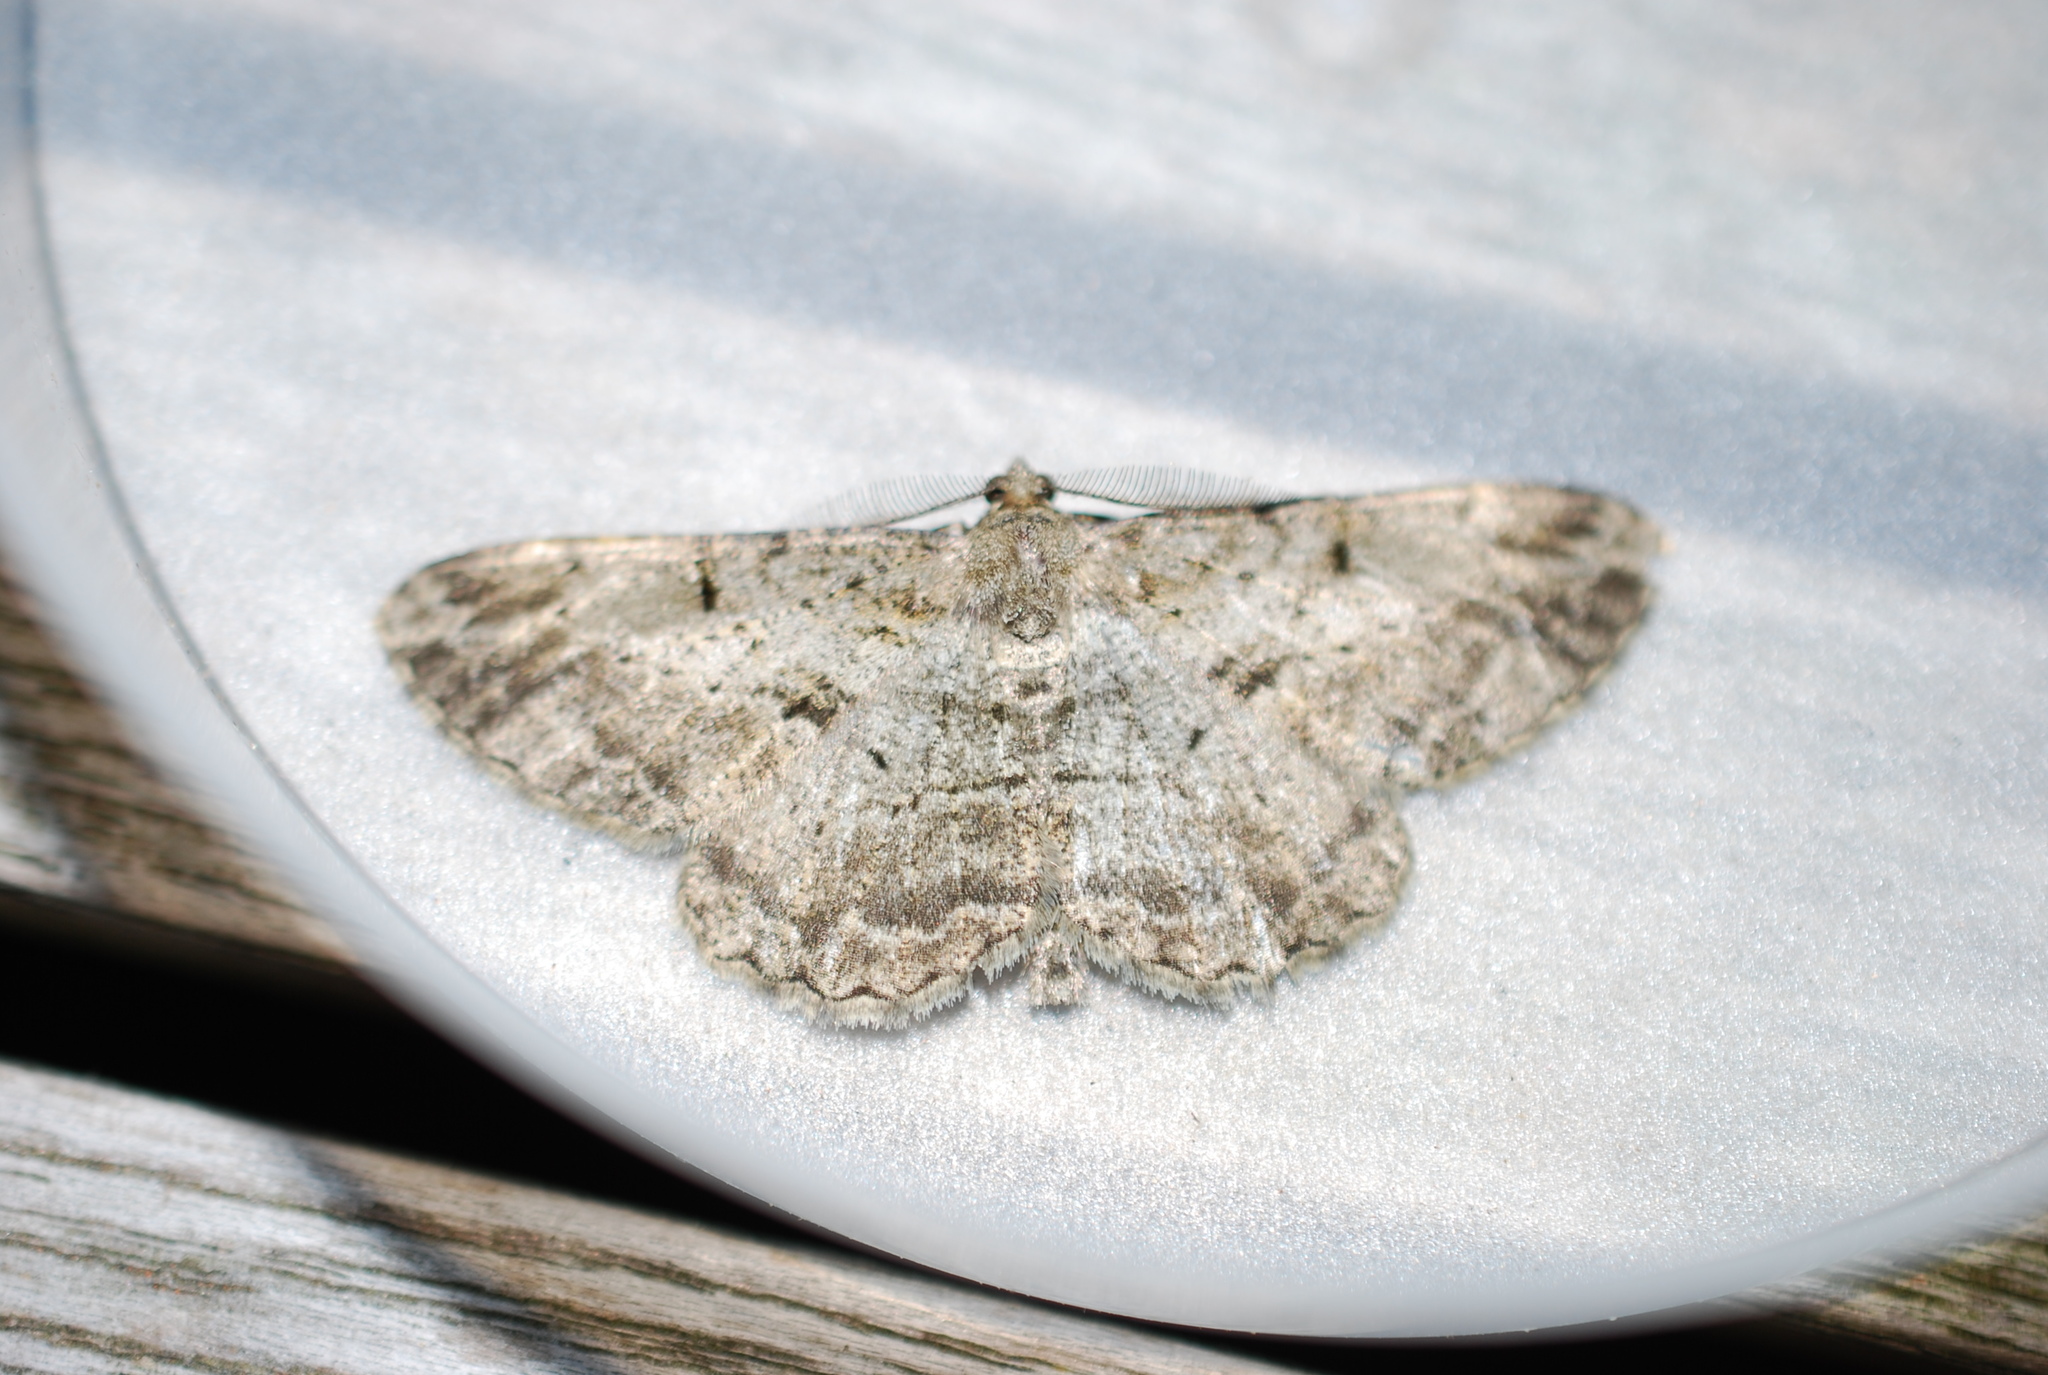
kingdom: Animalia
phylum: Arthropoda
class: Insecta
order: Lepidoptera
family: Geometridae
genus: Peribatodes
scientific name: Peribatodes rhomboidaria
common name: Willow beauty
